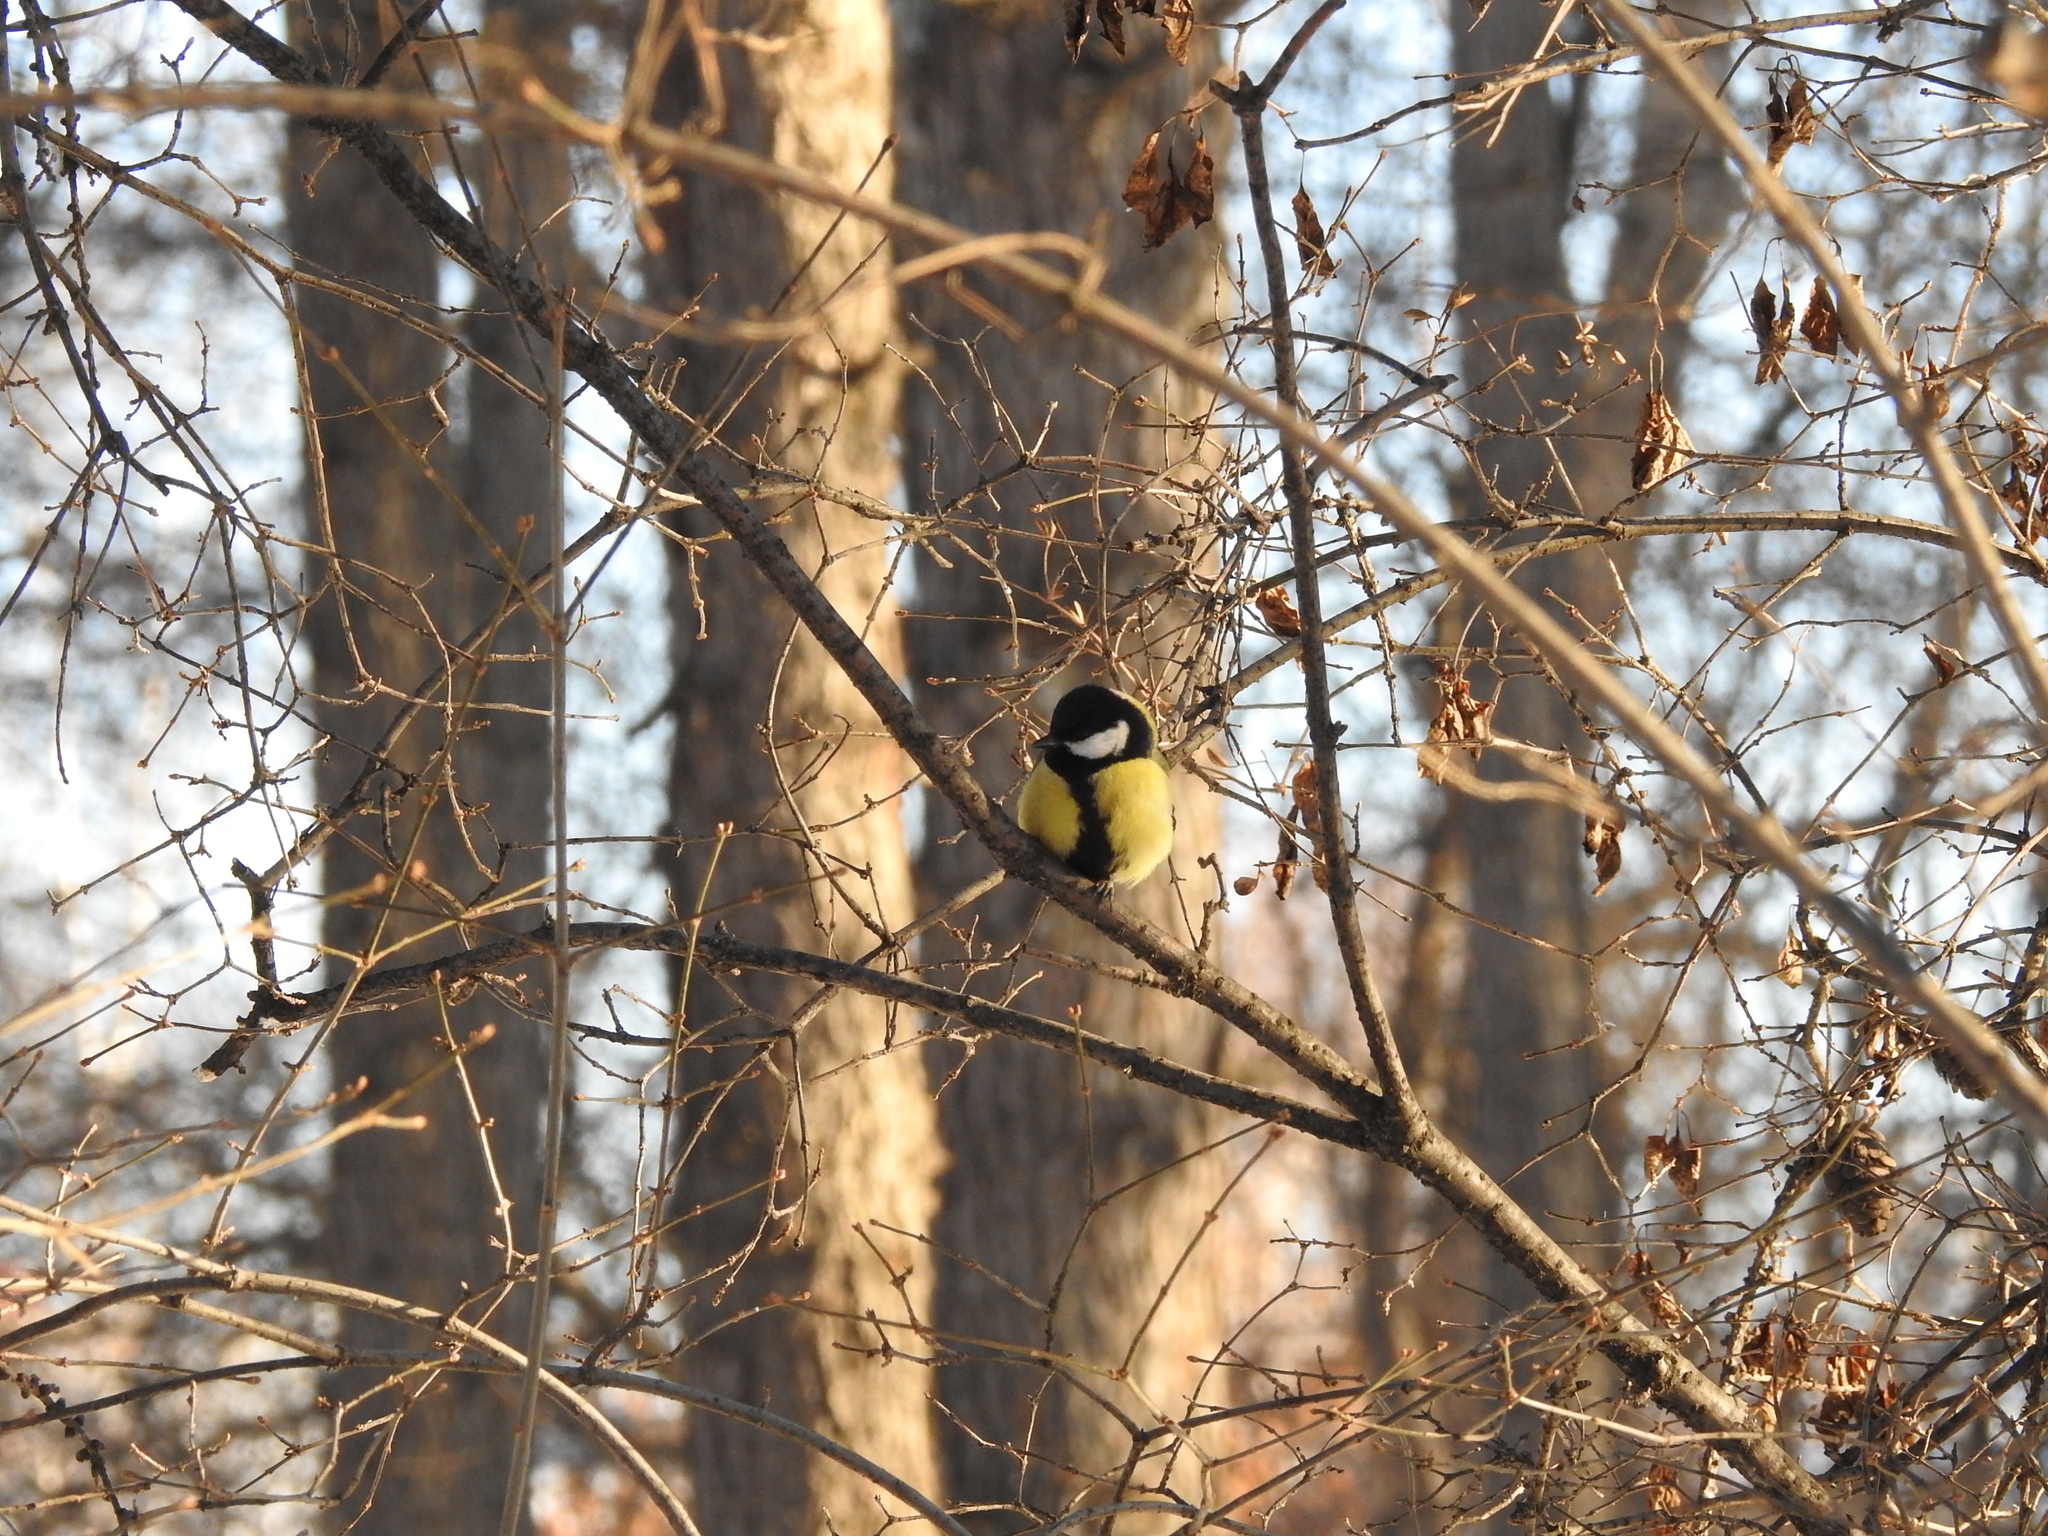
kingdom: Animalia
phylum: Chordata
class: Aves
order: Passeriformes
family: Paridae
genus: Parus
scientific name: Parus major
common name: Great tit
